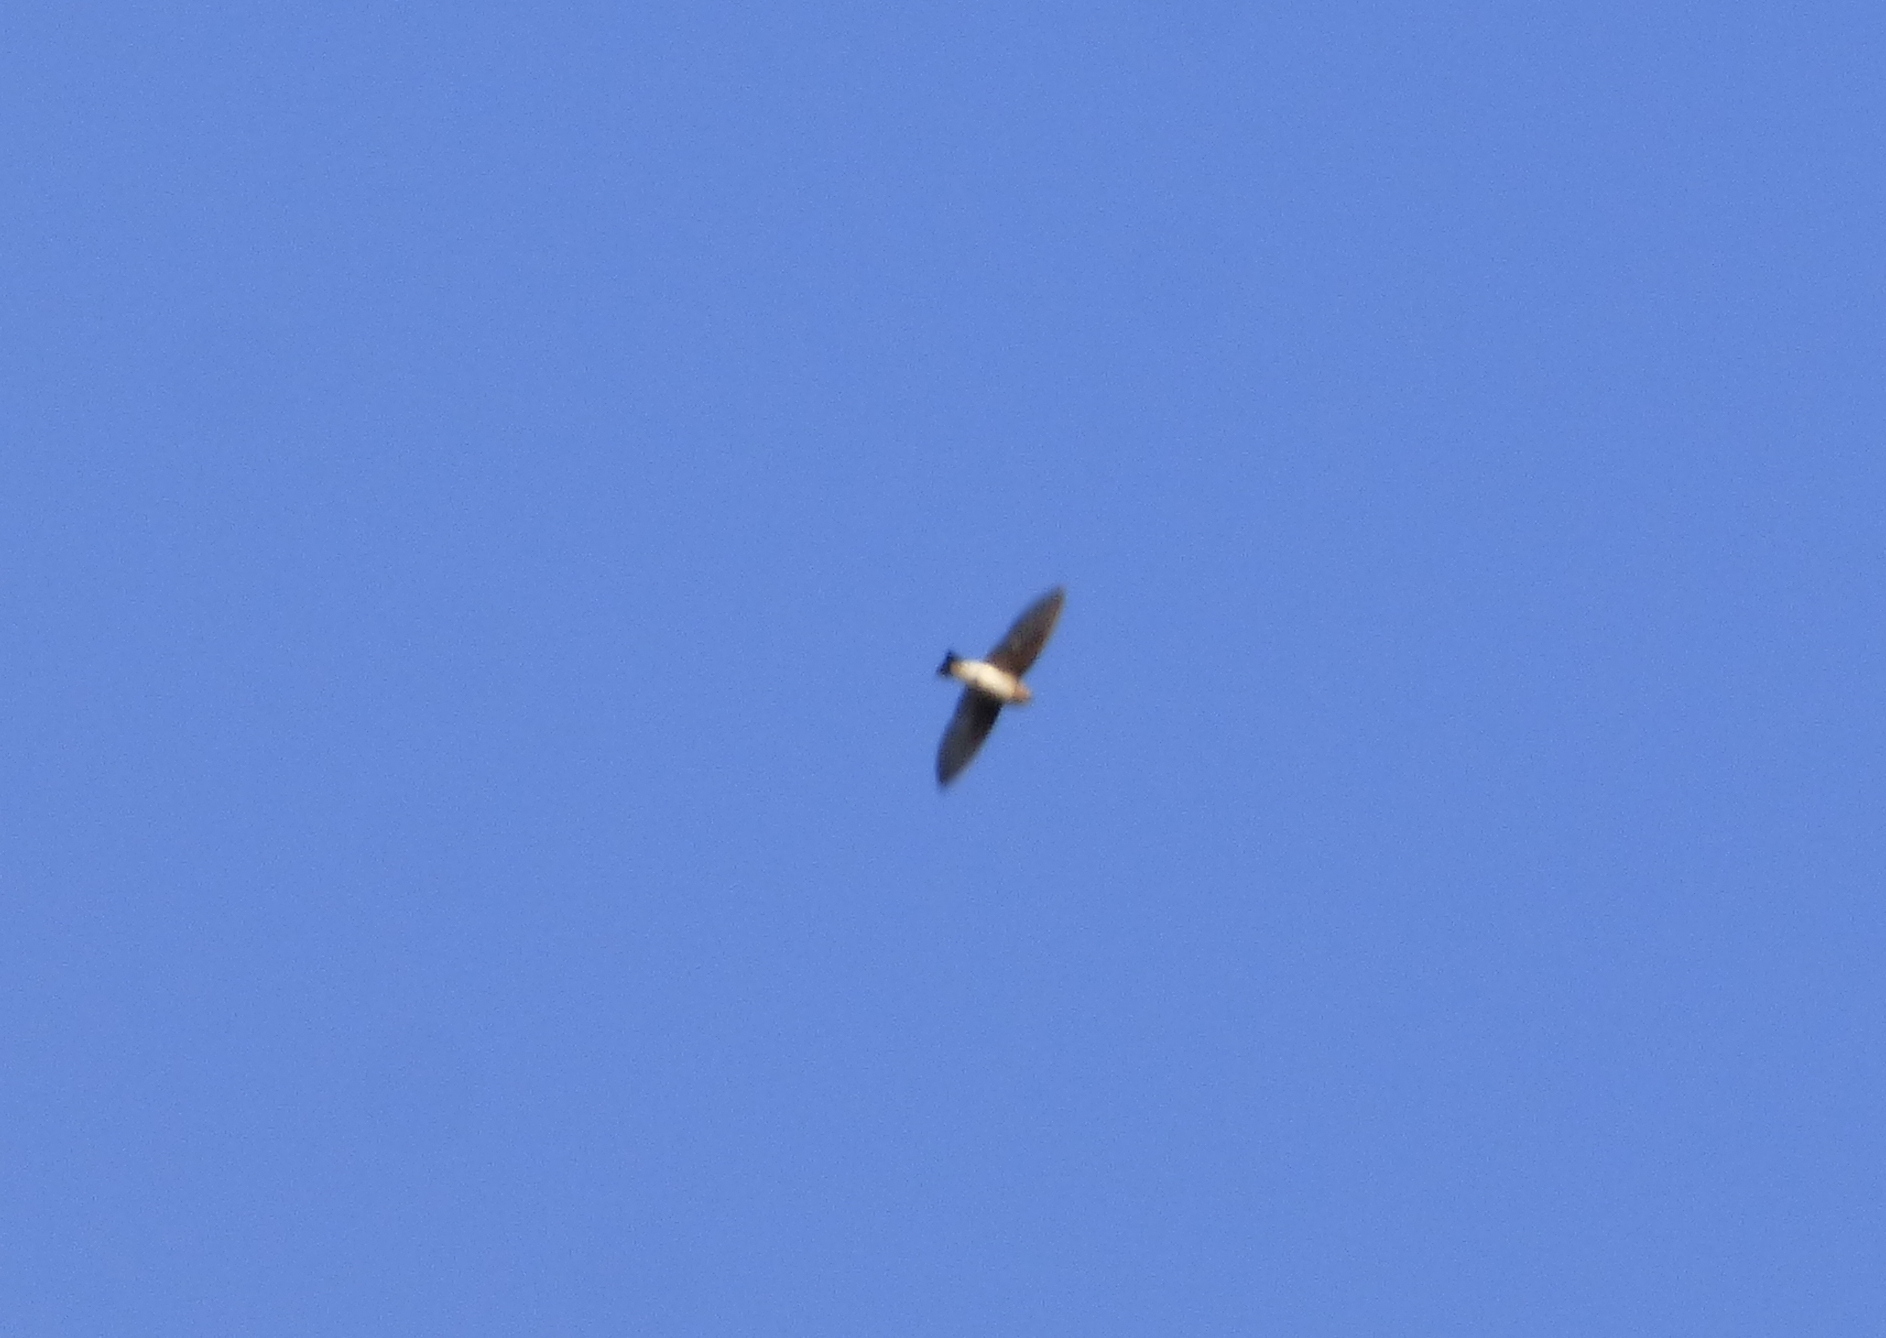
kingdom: Animalia
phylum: Chordata
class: Aves
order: Passeriformes
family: Hirundinidae
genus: Alopochelidon
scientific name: Alopochelidon fucata
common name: Tawny-headed swallow
